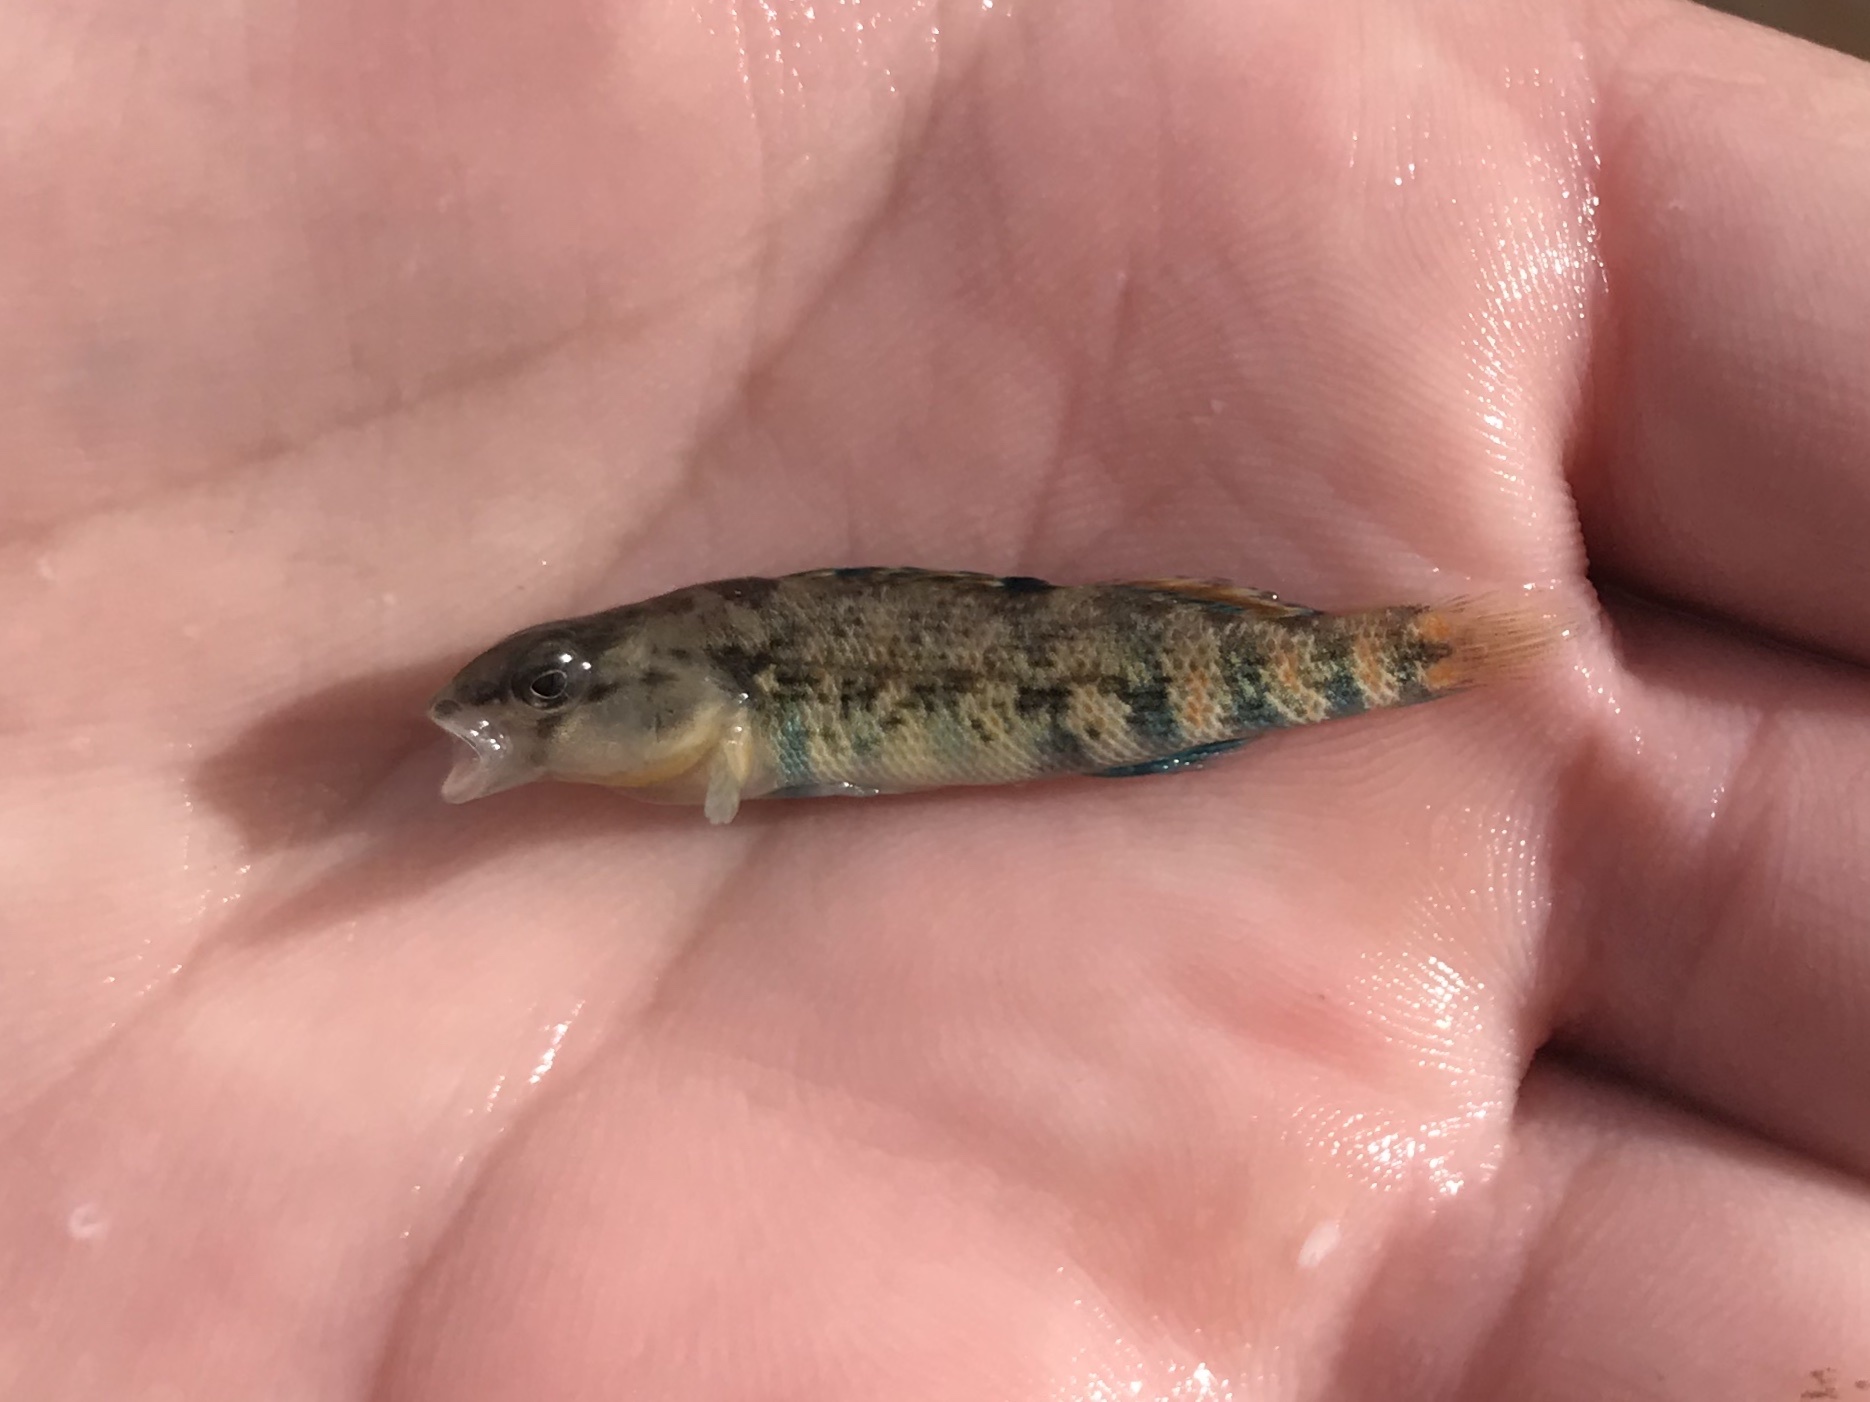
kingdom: Animalia
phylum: Chordata
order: Perciformes
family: Percidae
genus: Etheostoma
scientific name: Etheostoma pulchellum
